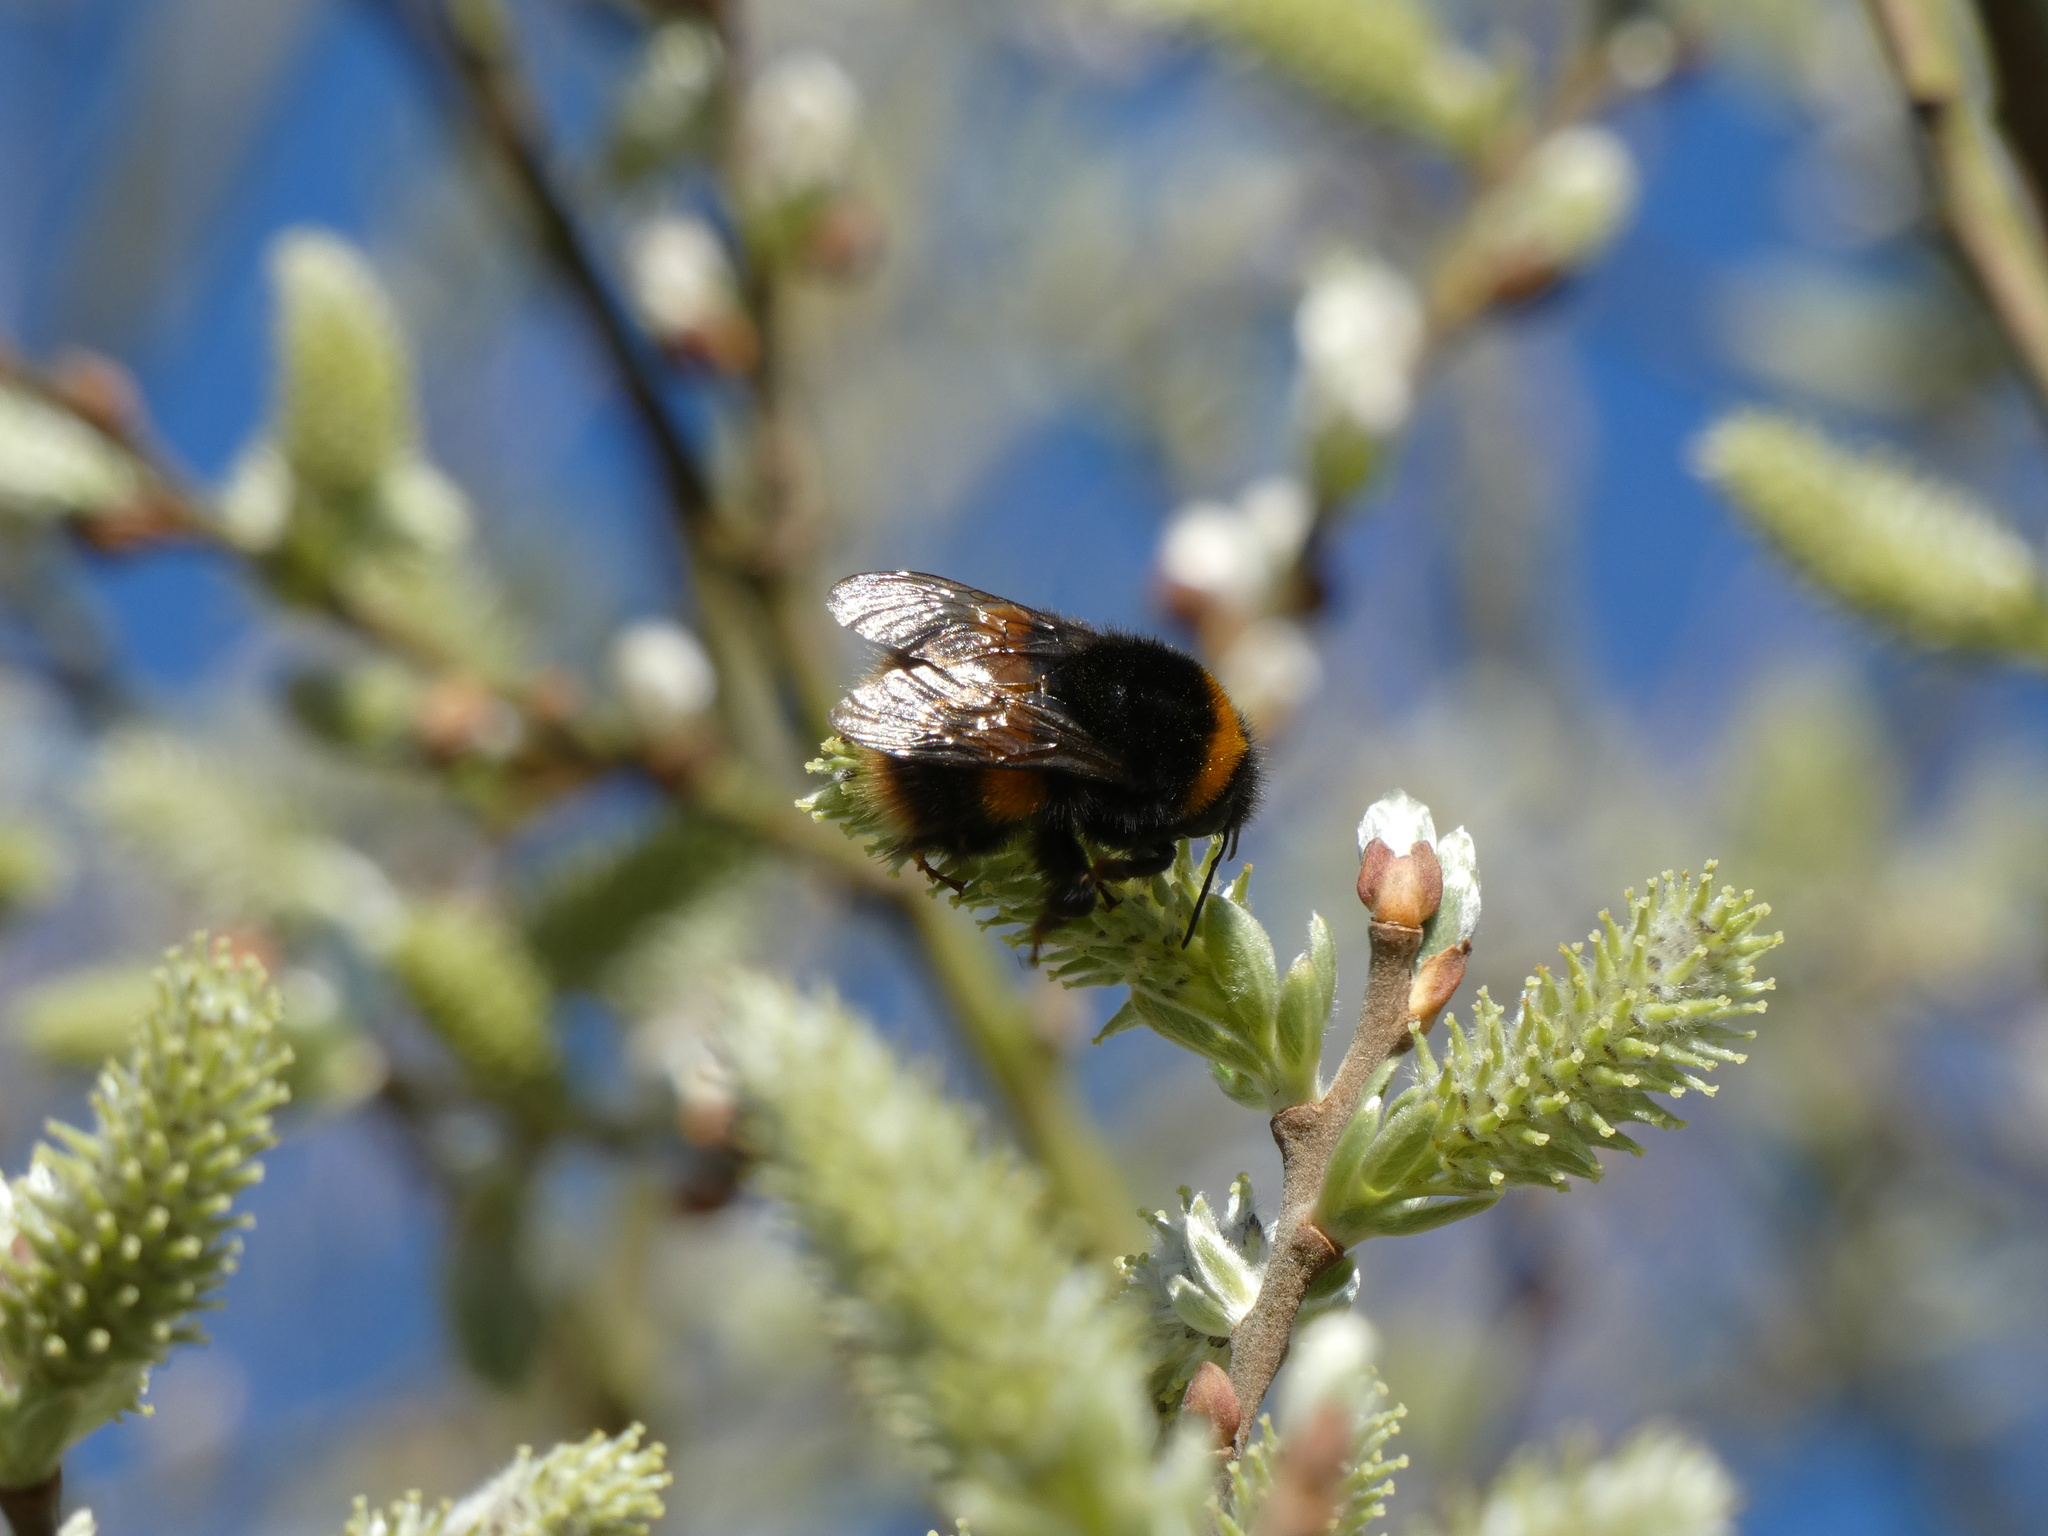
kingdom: Animalia
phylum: Arthropoda
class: Insecta
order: Hymenoptera
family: Apidae
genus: Bombus
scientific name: Bombus terrestris
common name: Buff-tailed bumblebee
